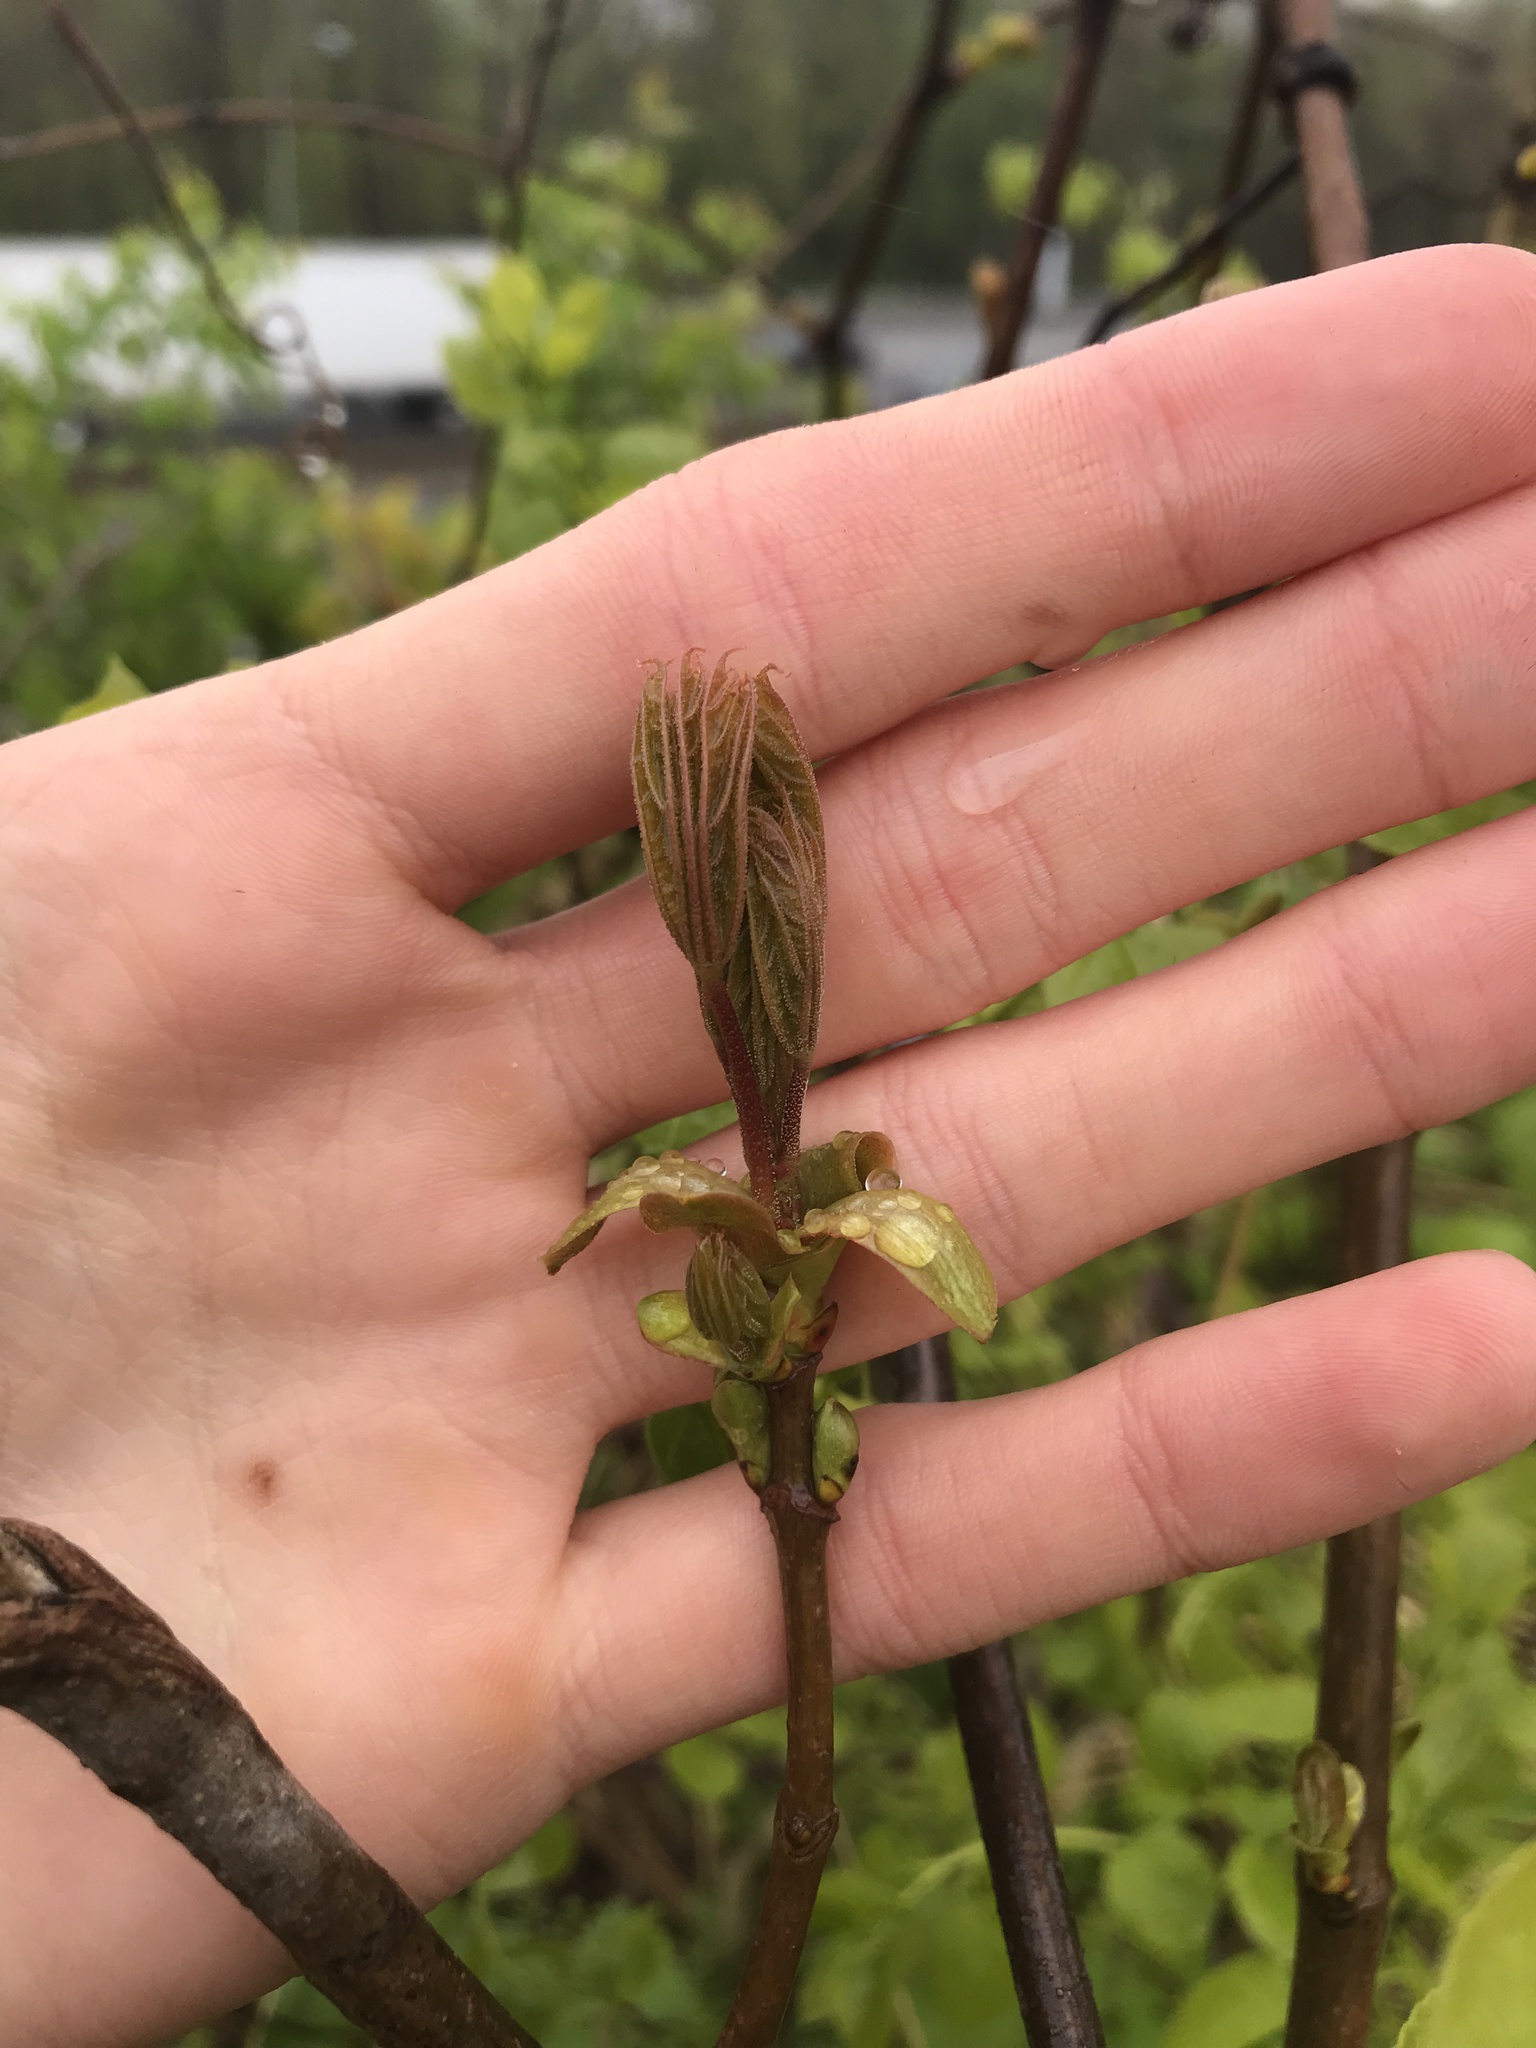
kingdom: Plantae
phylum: Tracheophyta
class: Magnoliopsida
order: Sapindales
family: Sapindaceae
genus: Acer
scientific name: Acer platanoides
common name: Norway maple
